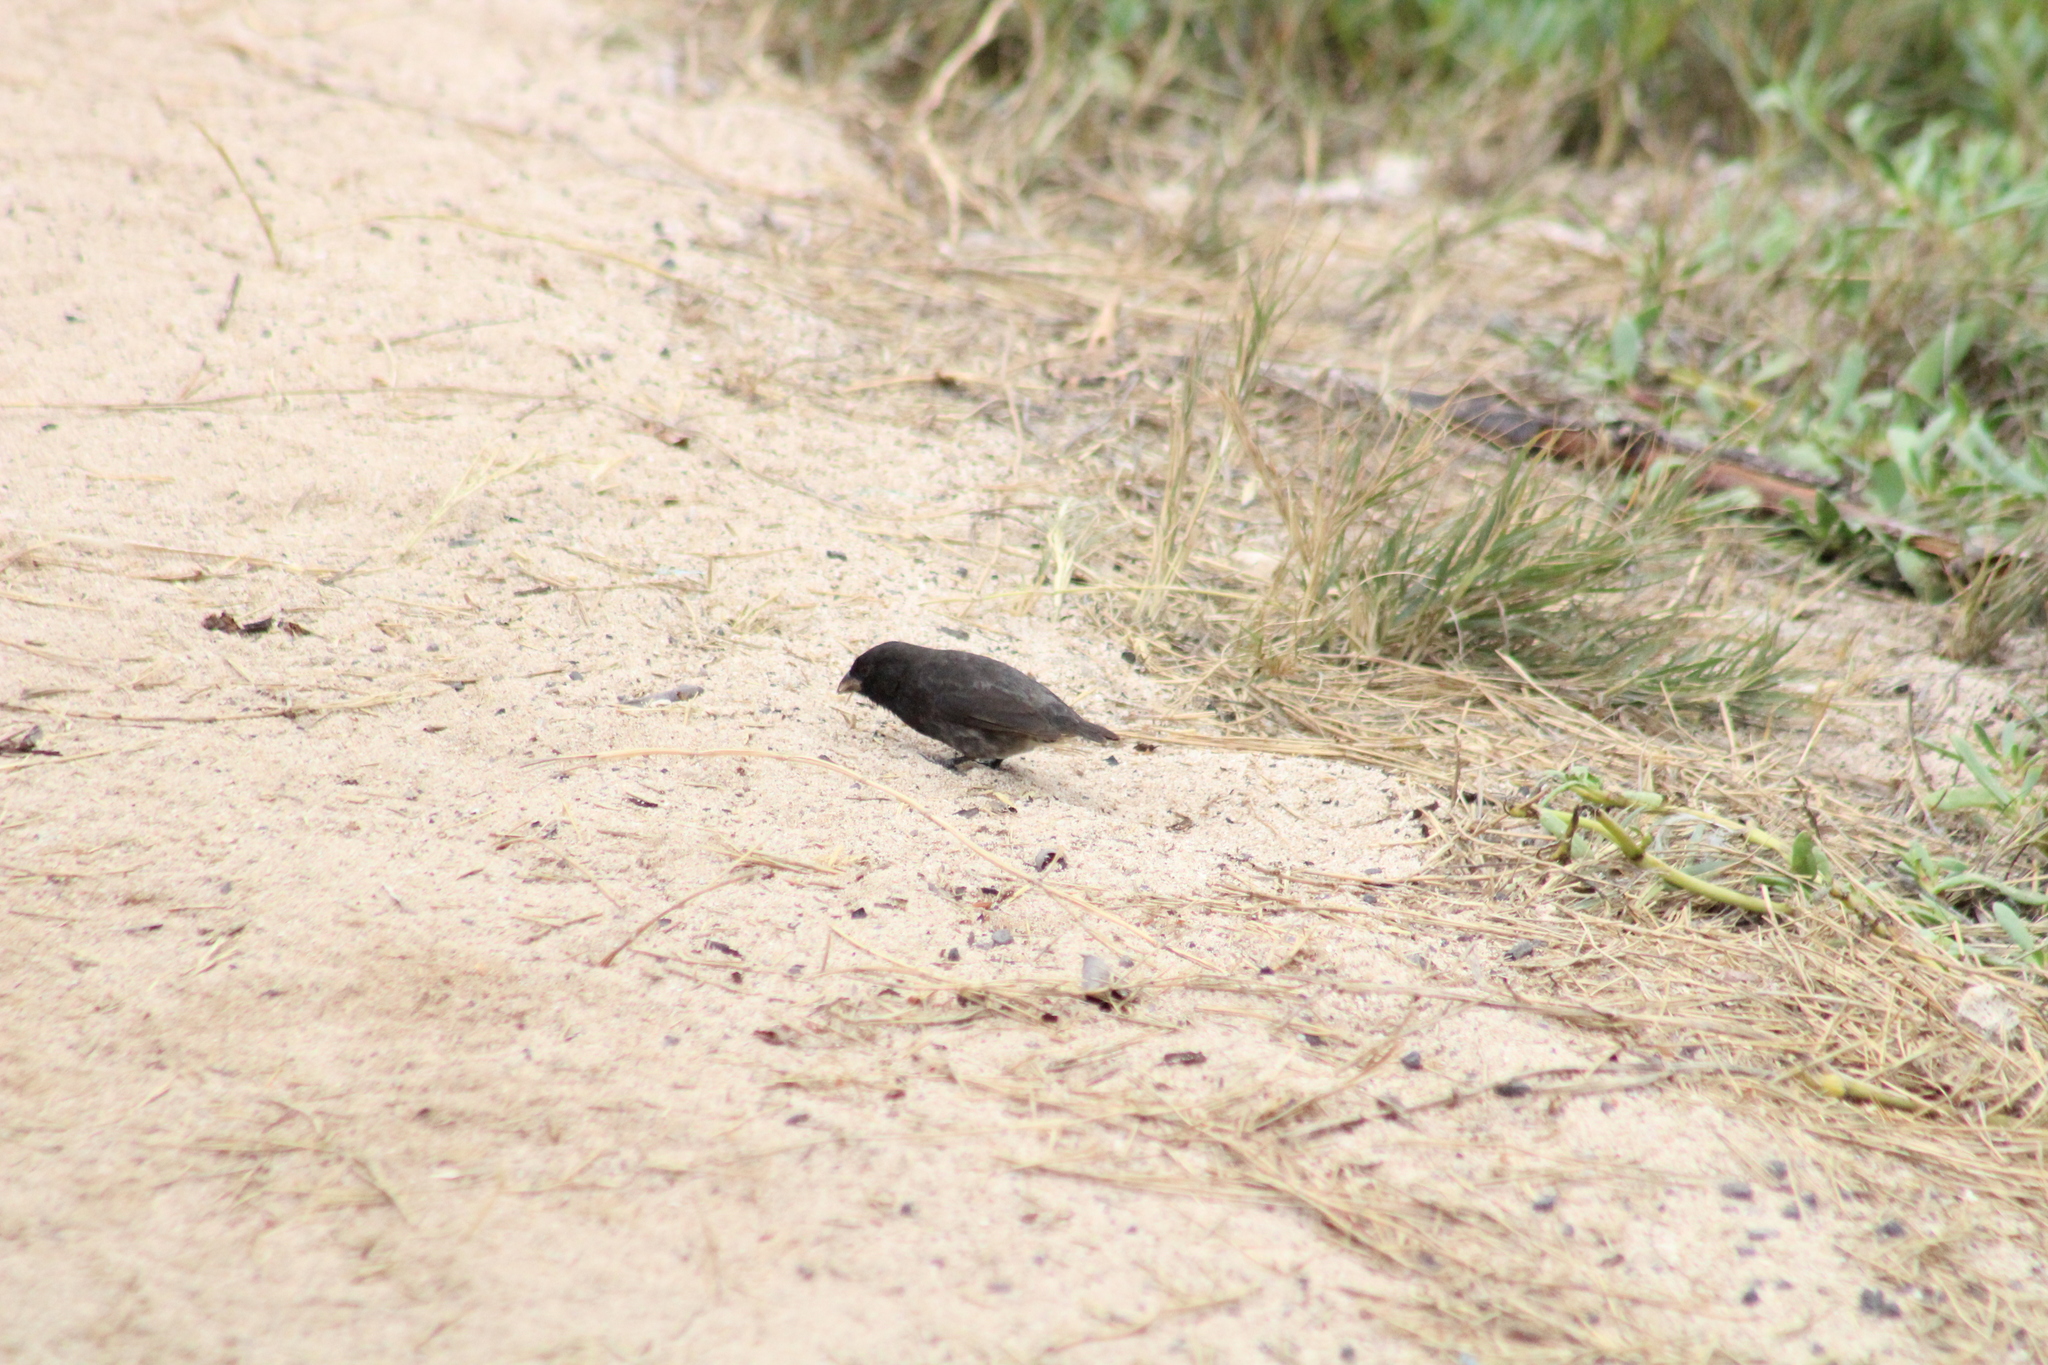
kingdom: Animalia
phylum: Chordata
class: Aves
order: Passeriformes
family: Thraupidae
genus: Geospiza
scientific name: Geospiza fuliginosa
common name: Small ground finch
